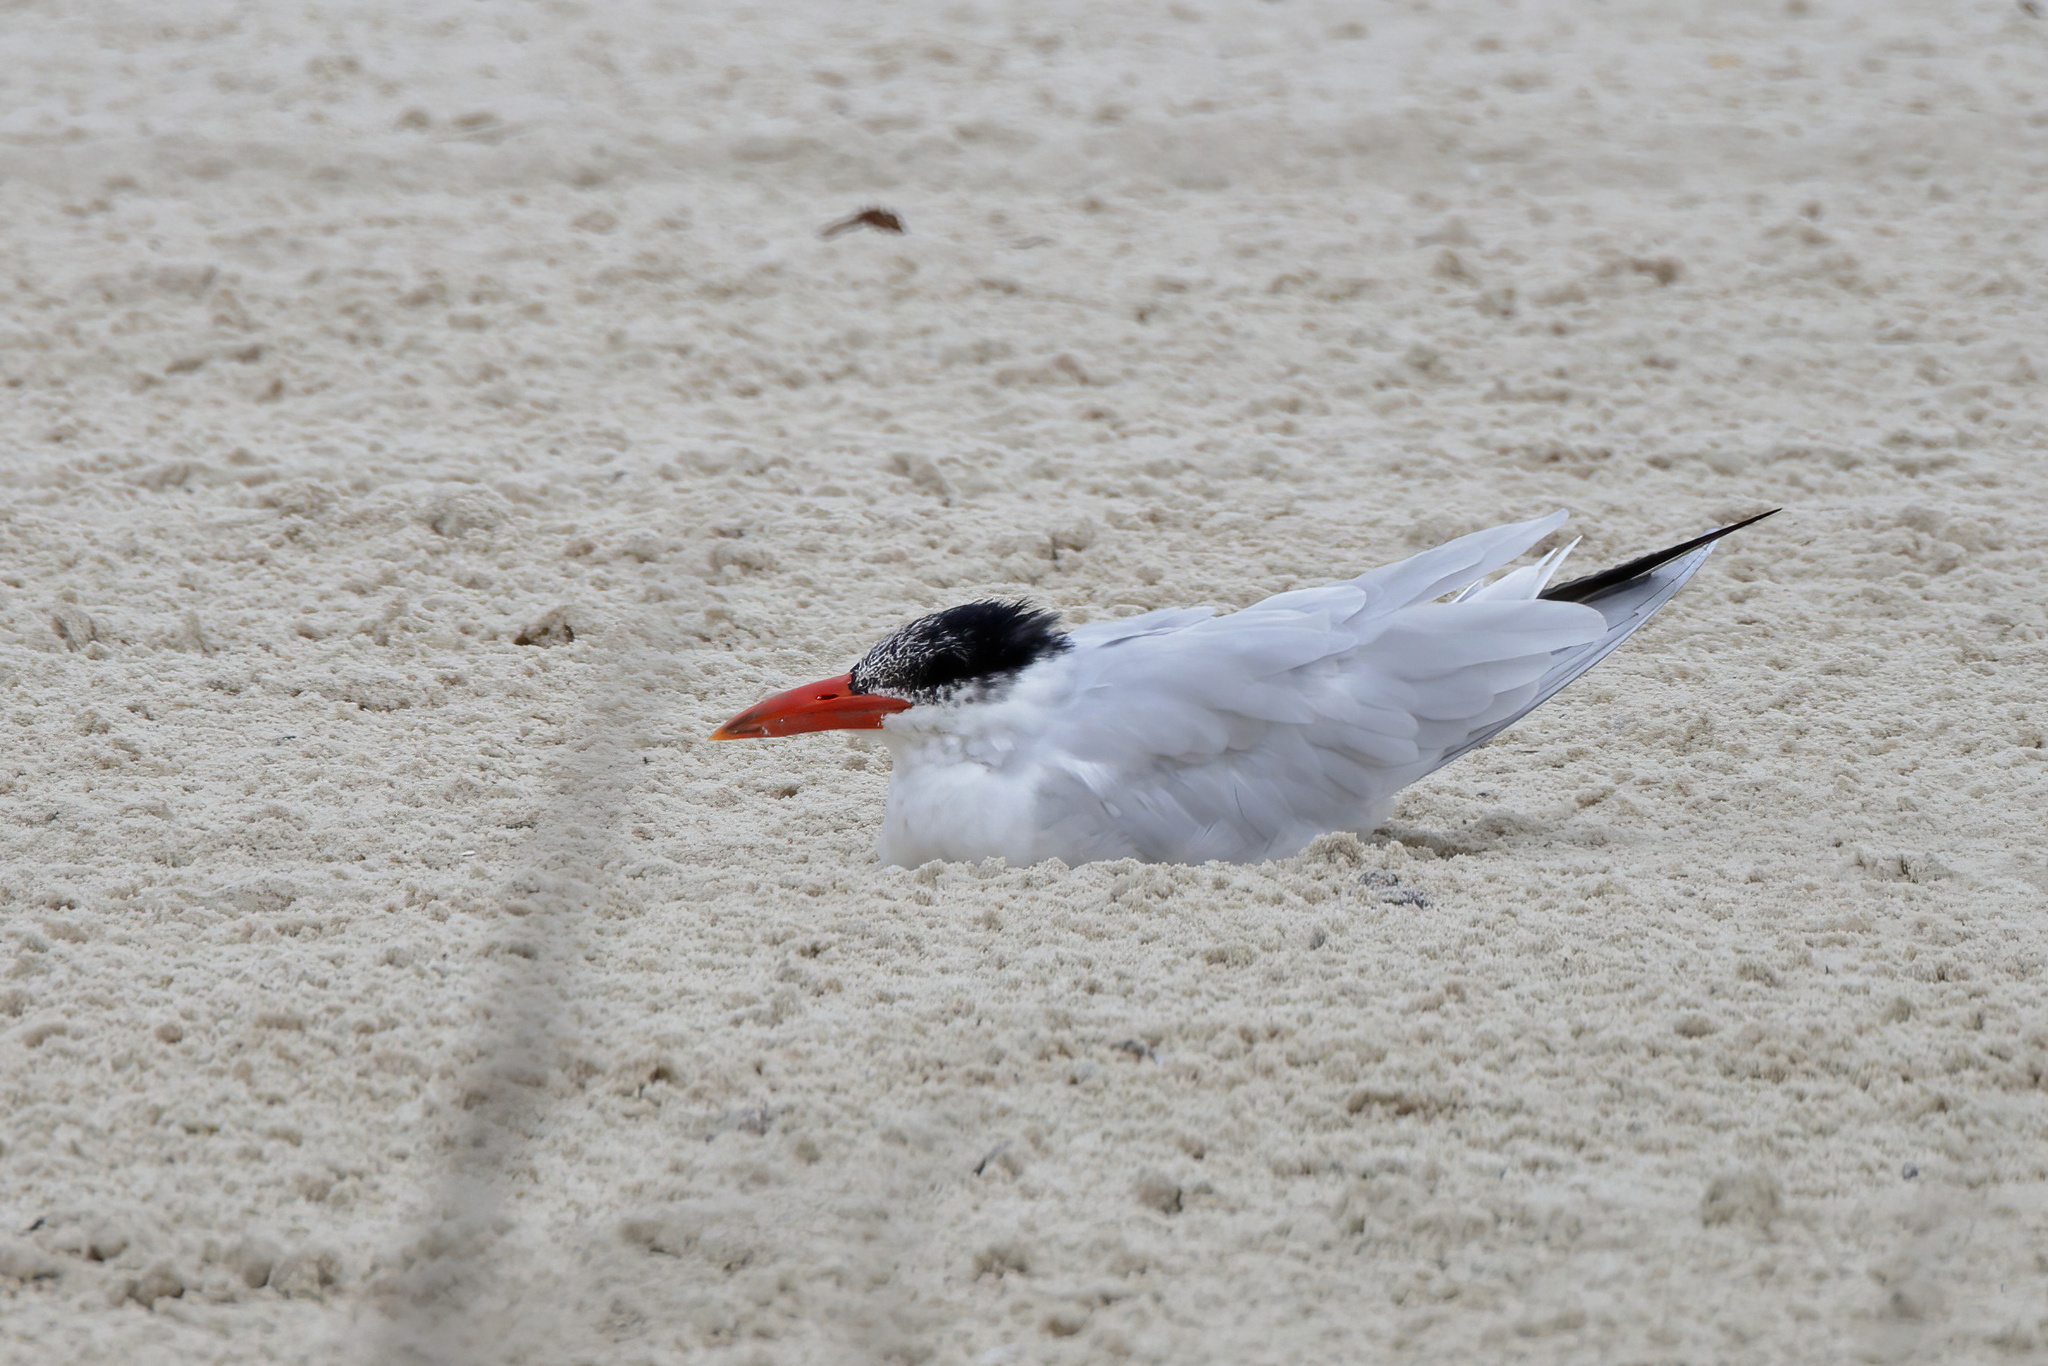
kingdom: Animalia
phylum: Chordata
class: Aves
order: Charadriiformes
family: Laridae
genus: Hydroprogne
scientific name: Hydroprogne caspia
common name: Caspian tern
